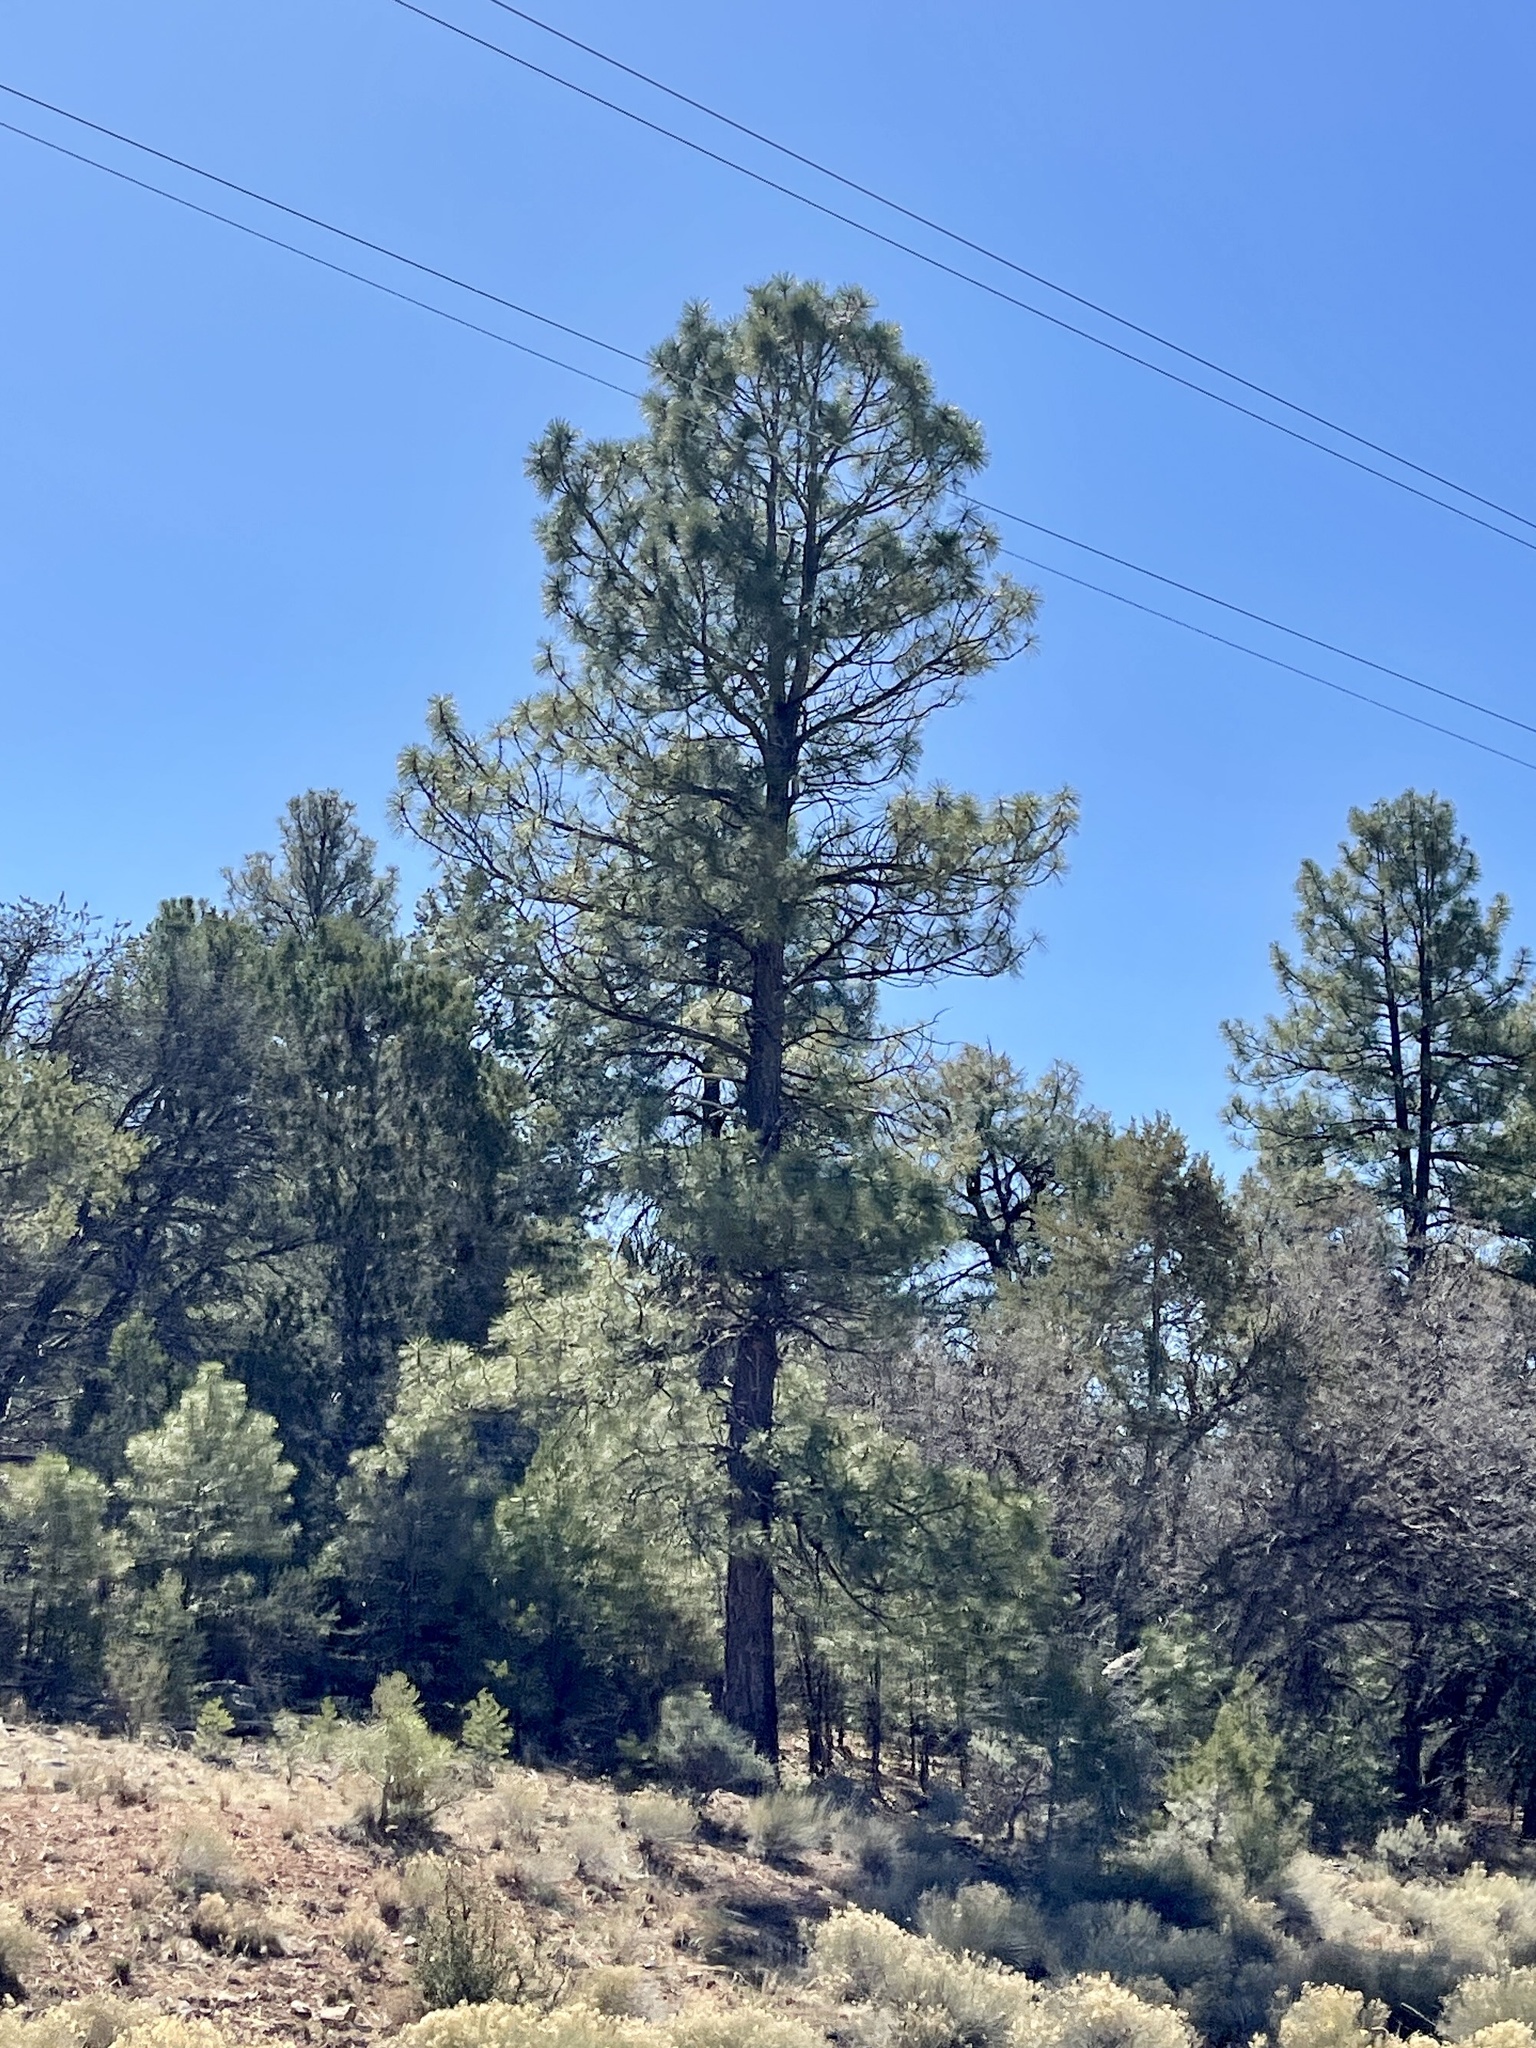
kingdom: Plantae
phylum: Tracheophyta
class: Pinopsida
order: Pinales
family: Pinaceae
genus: Pinus
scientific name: Pinus ponderosa
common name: Western yellow-pine
